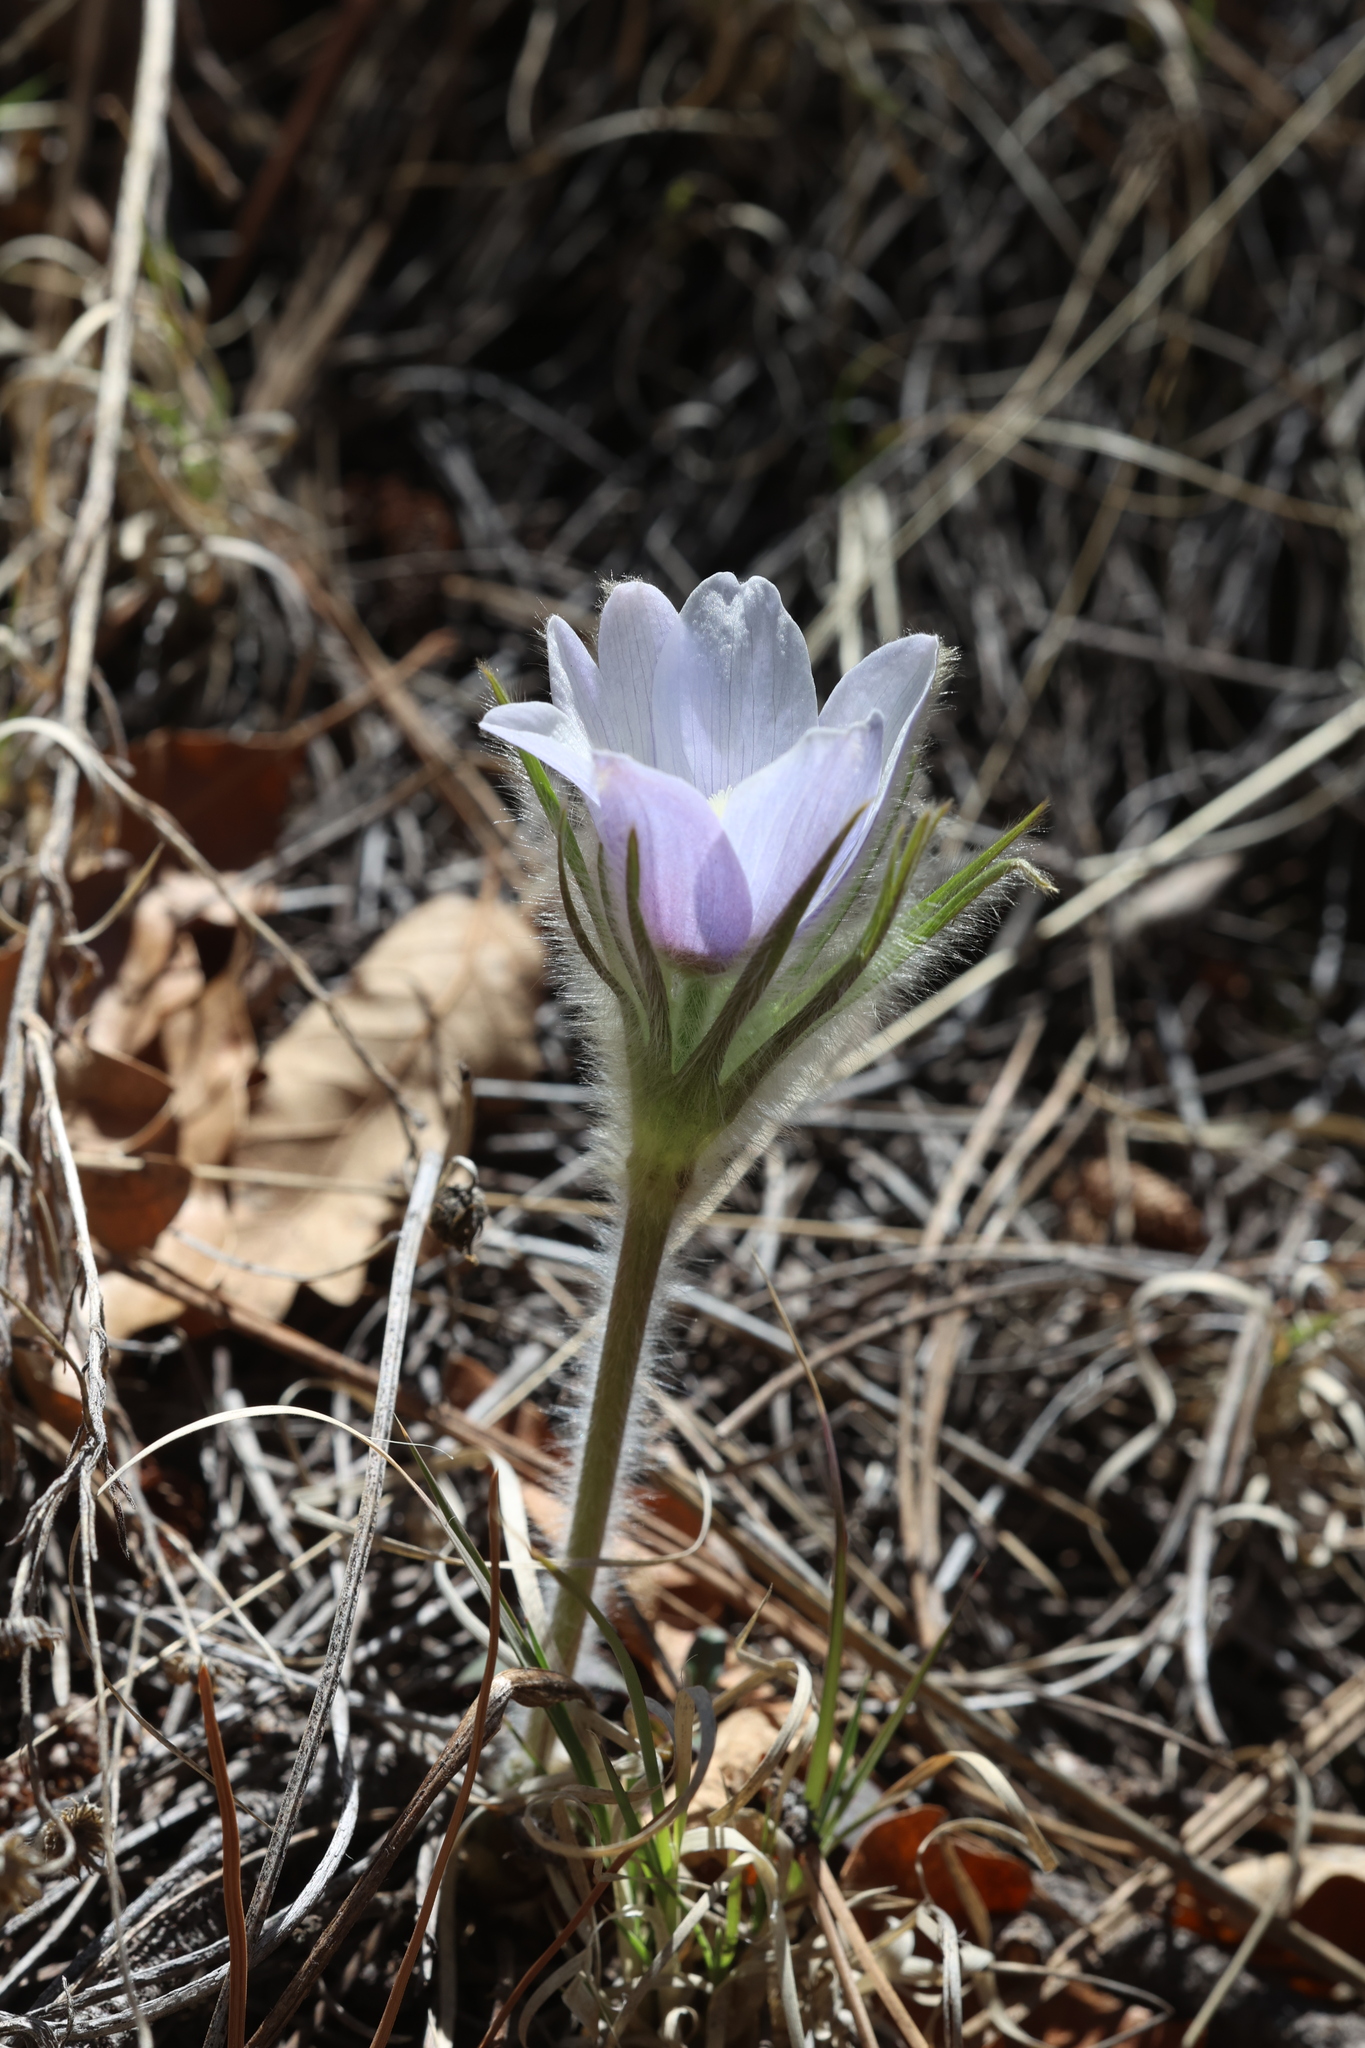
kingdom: Plantae
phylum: Tracheophyta
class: Magnoliopsida
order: Ranunculales
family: Ranunculaceae
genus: Pulsatilla
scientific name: Pulsatilla nuttalliana
